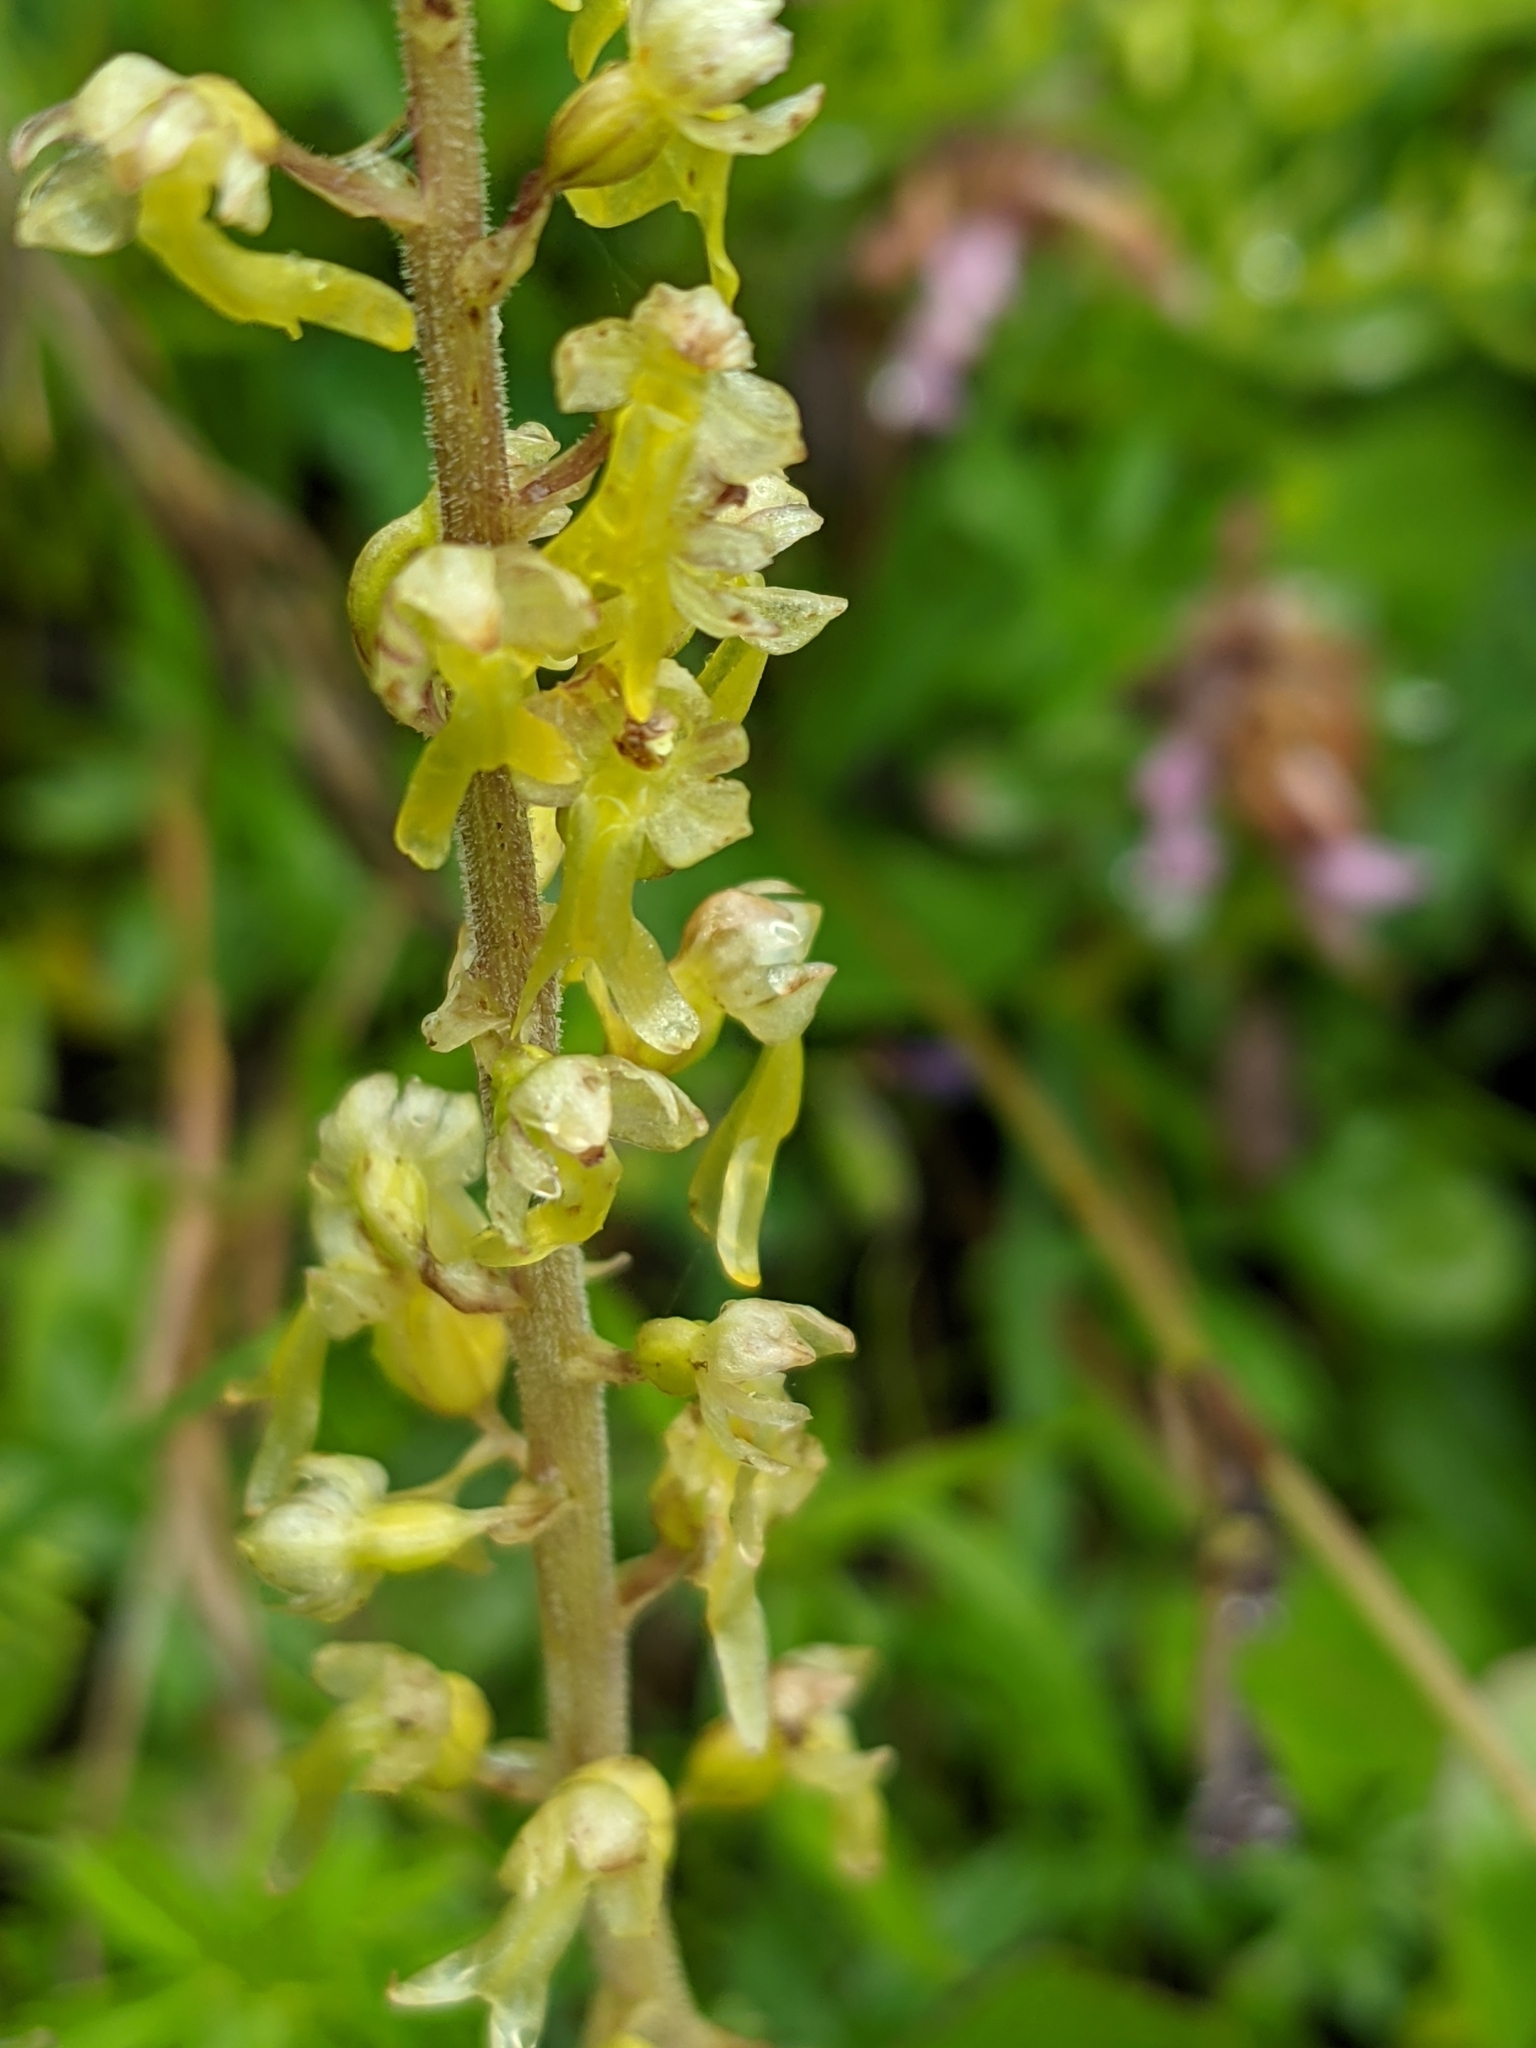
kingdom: Plantae
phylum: Tracheophyta
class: Liliopsida
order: Asparagales
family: Orchidaceae
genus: Neottia
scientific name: Neottia ovata
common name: Common twayblade
